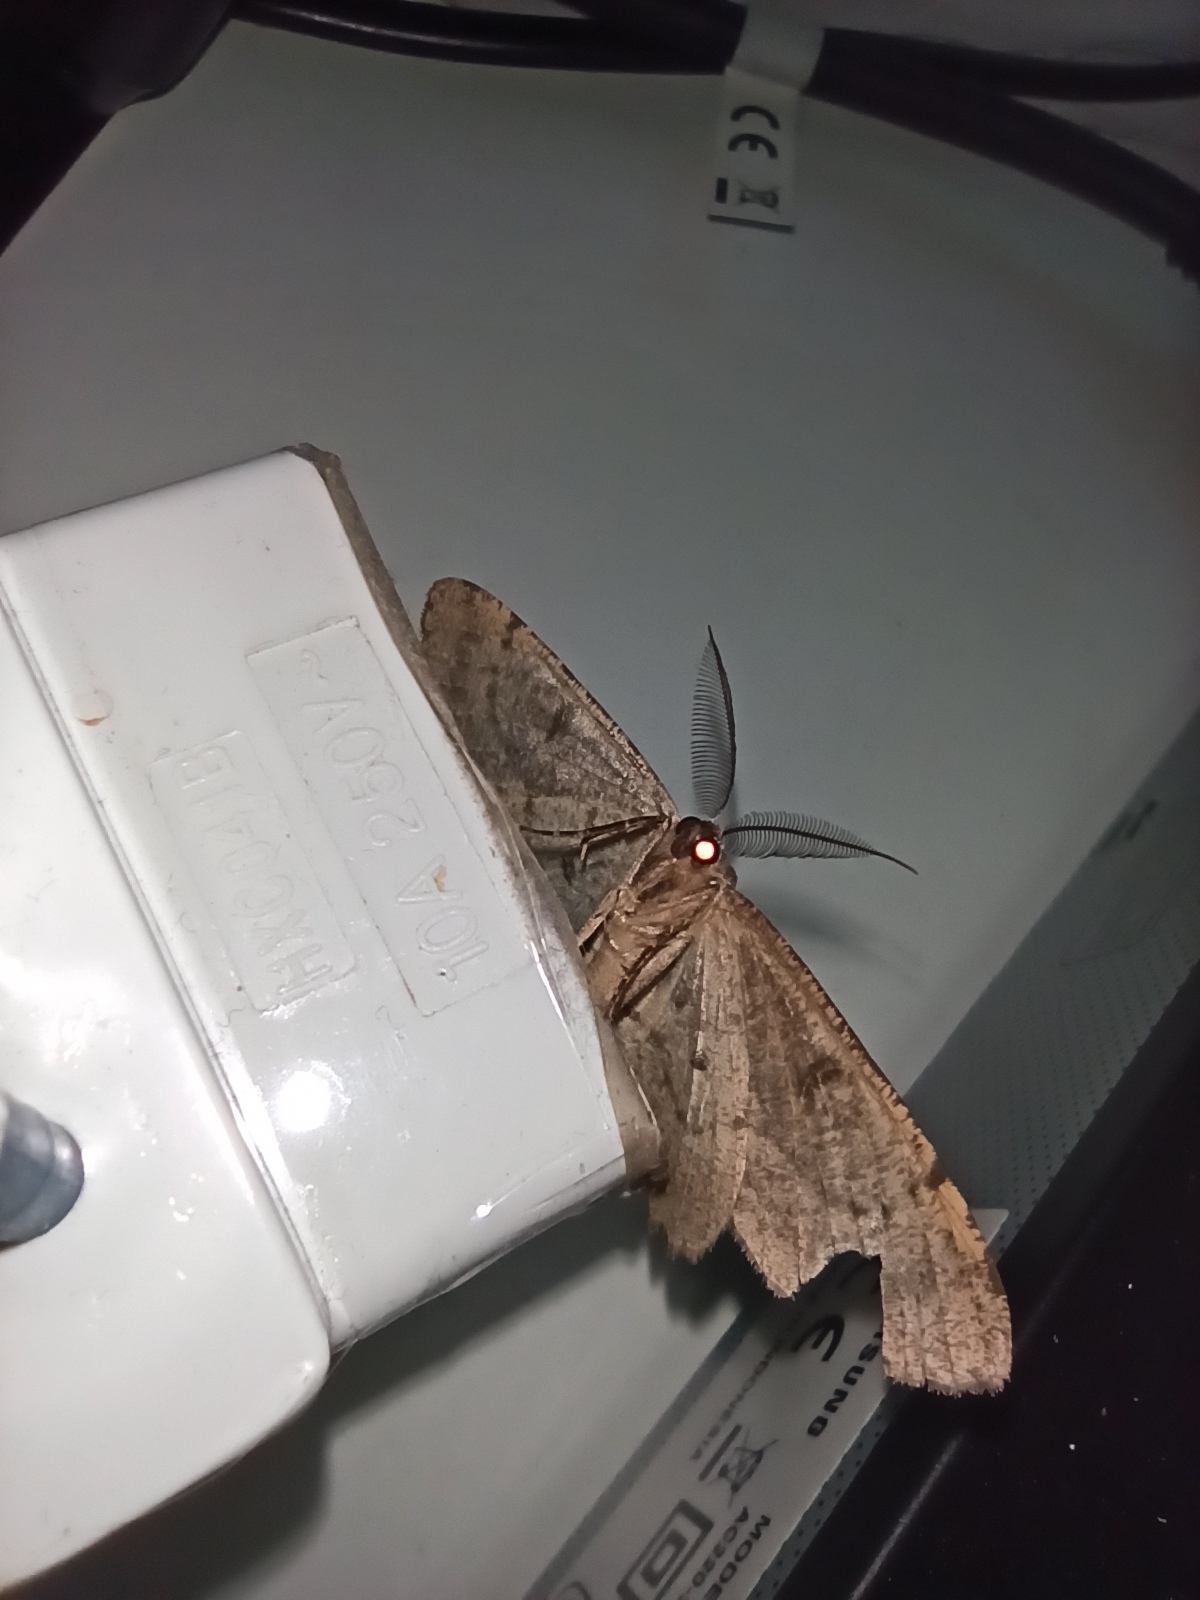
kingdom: Animalia
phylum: Arthropoda
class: Insecta
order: Lepidoptera
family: Geometridae
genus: Hypomecis
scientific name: Hypomecis punctinalis
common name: Pale oak beauty
